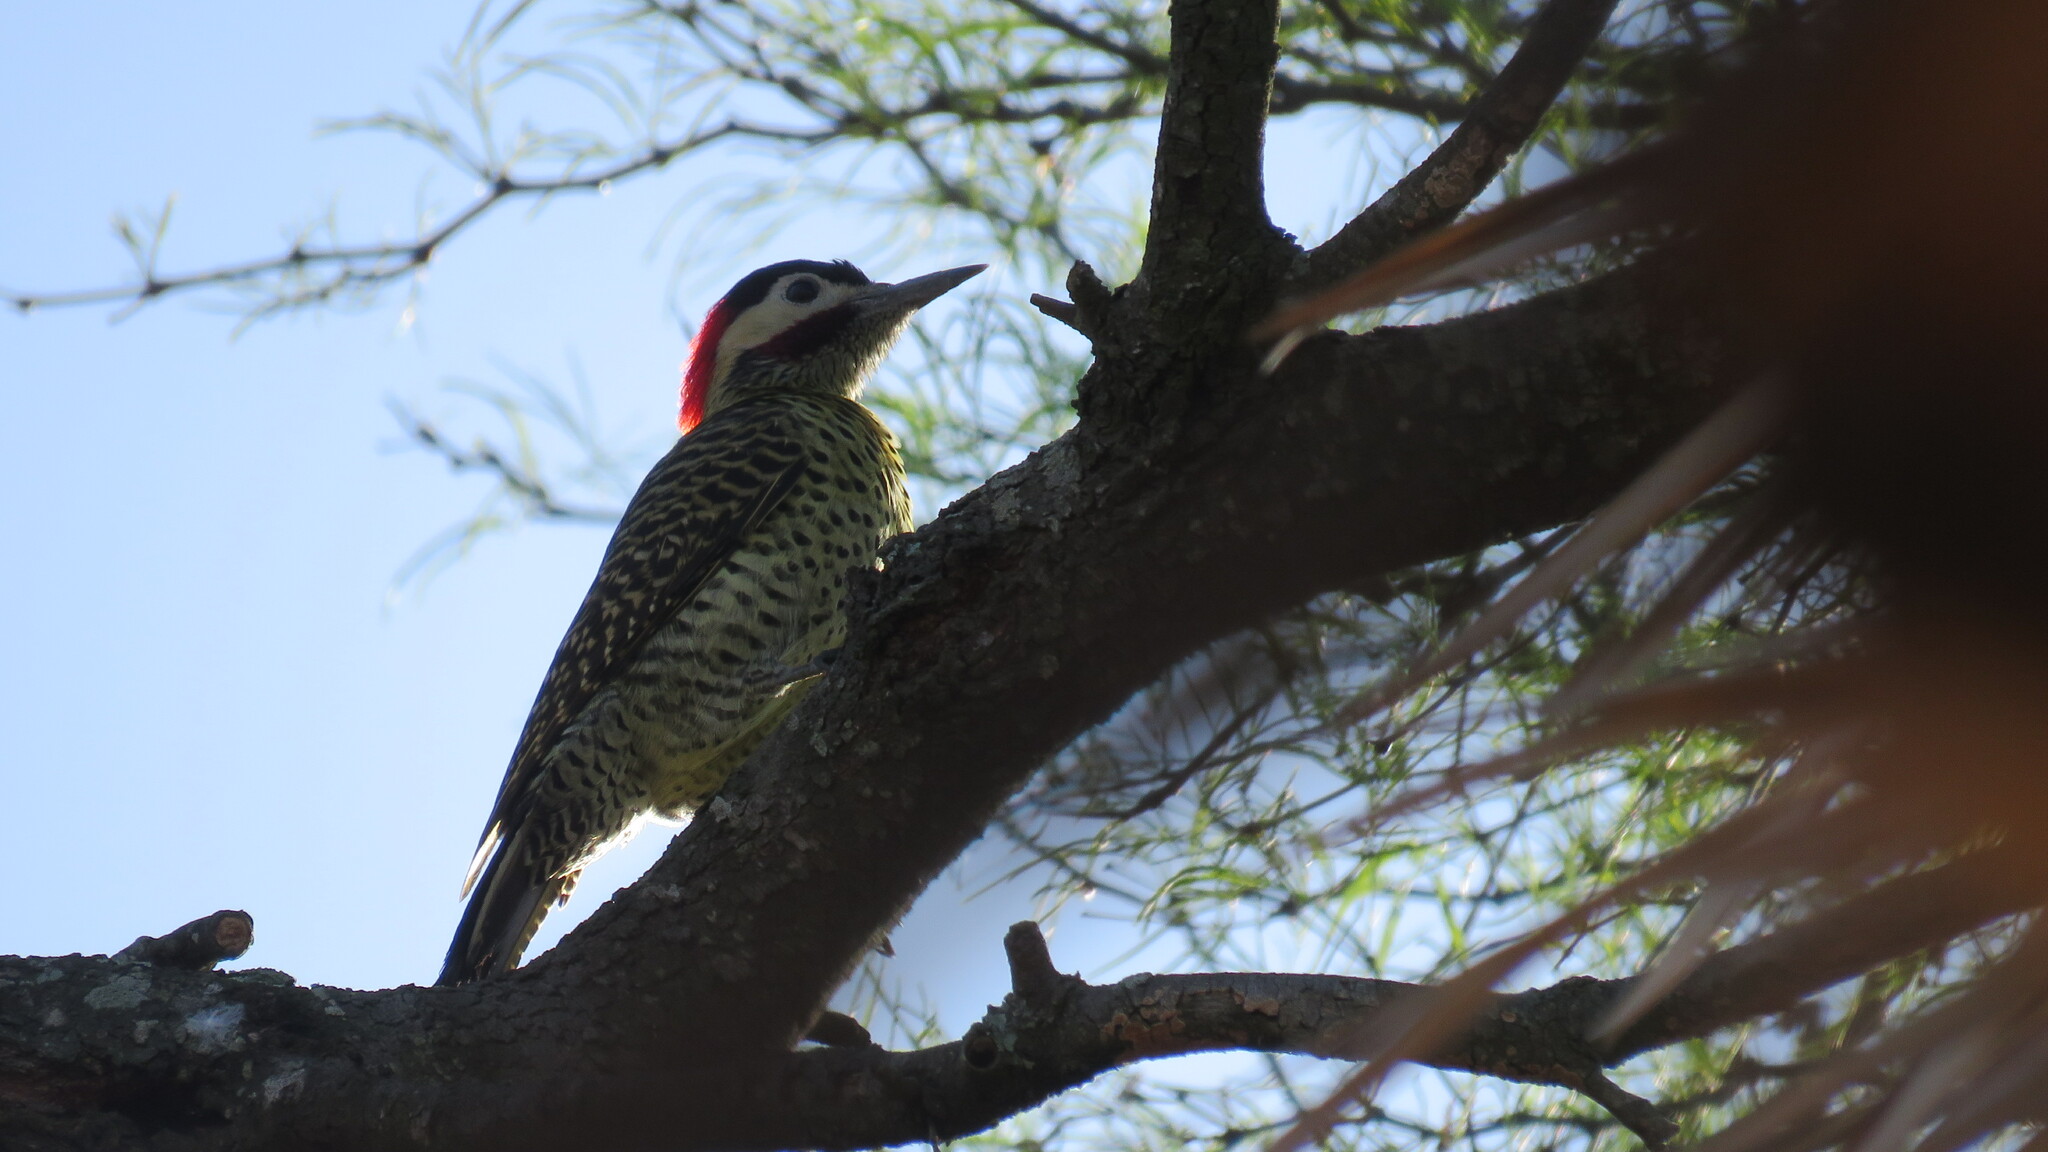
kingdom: Animalia
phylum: Chordata
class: Aves
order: Piciformes
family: Picidae
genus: Colaptes
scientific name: Colaptes melanochloros
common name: Green-barred woodpecker
